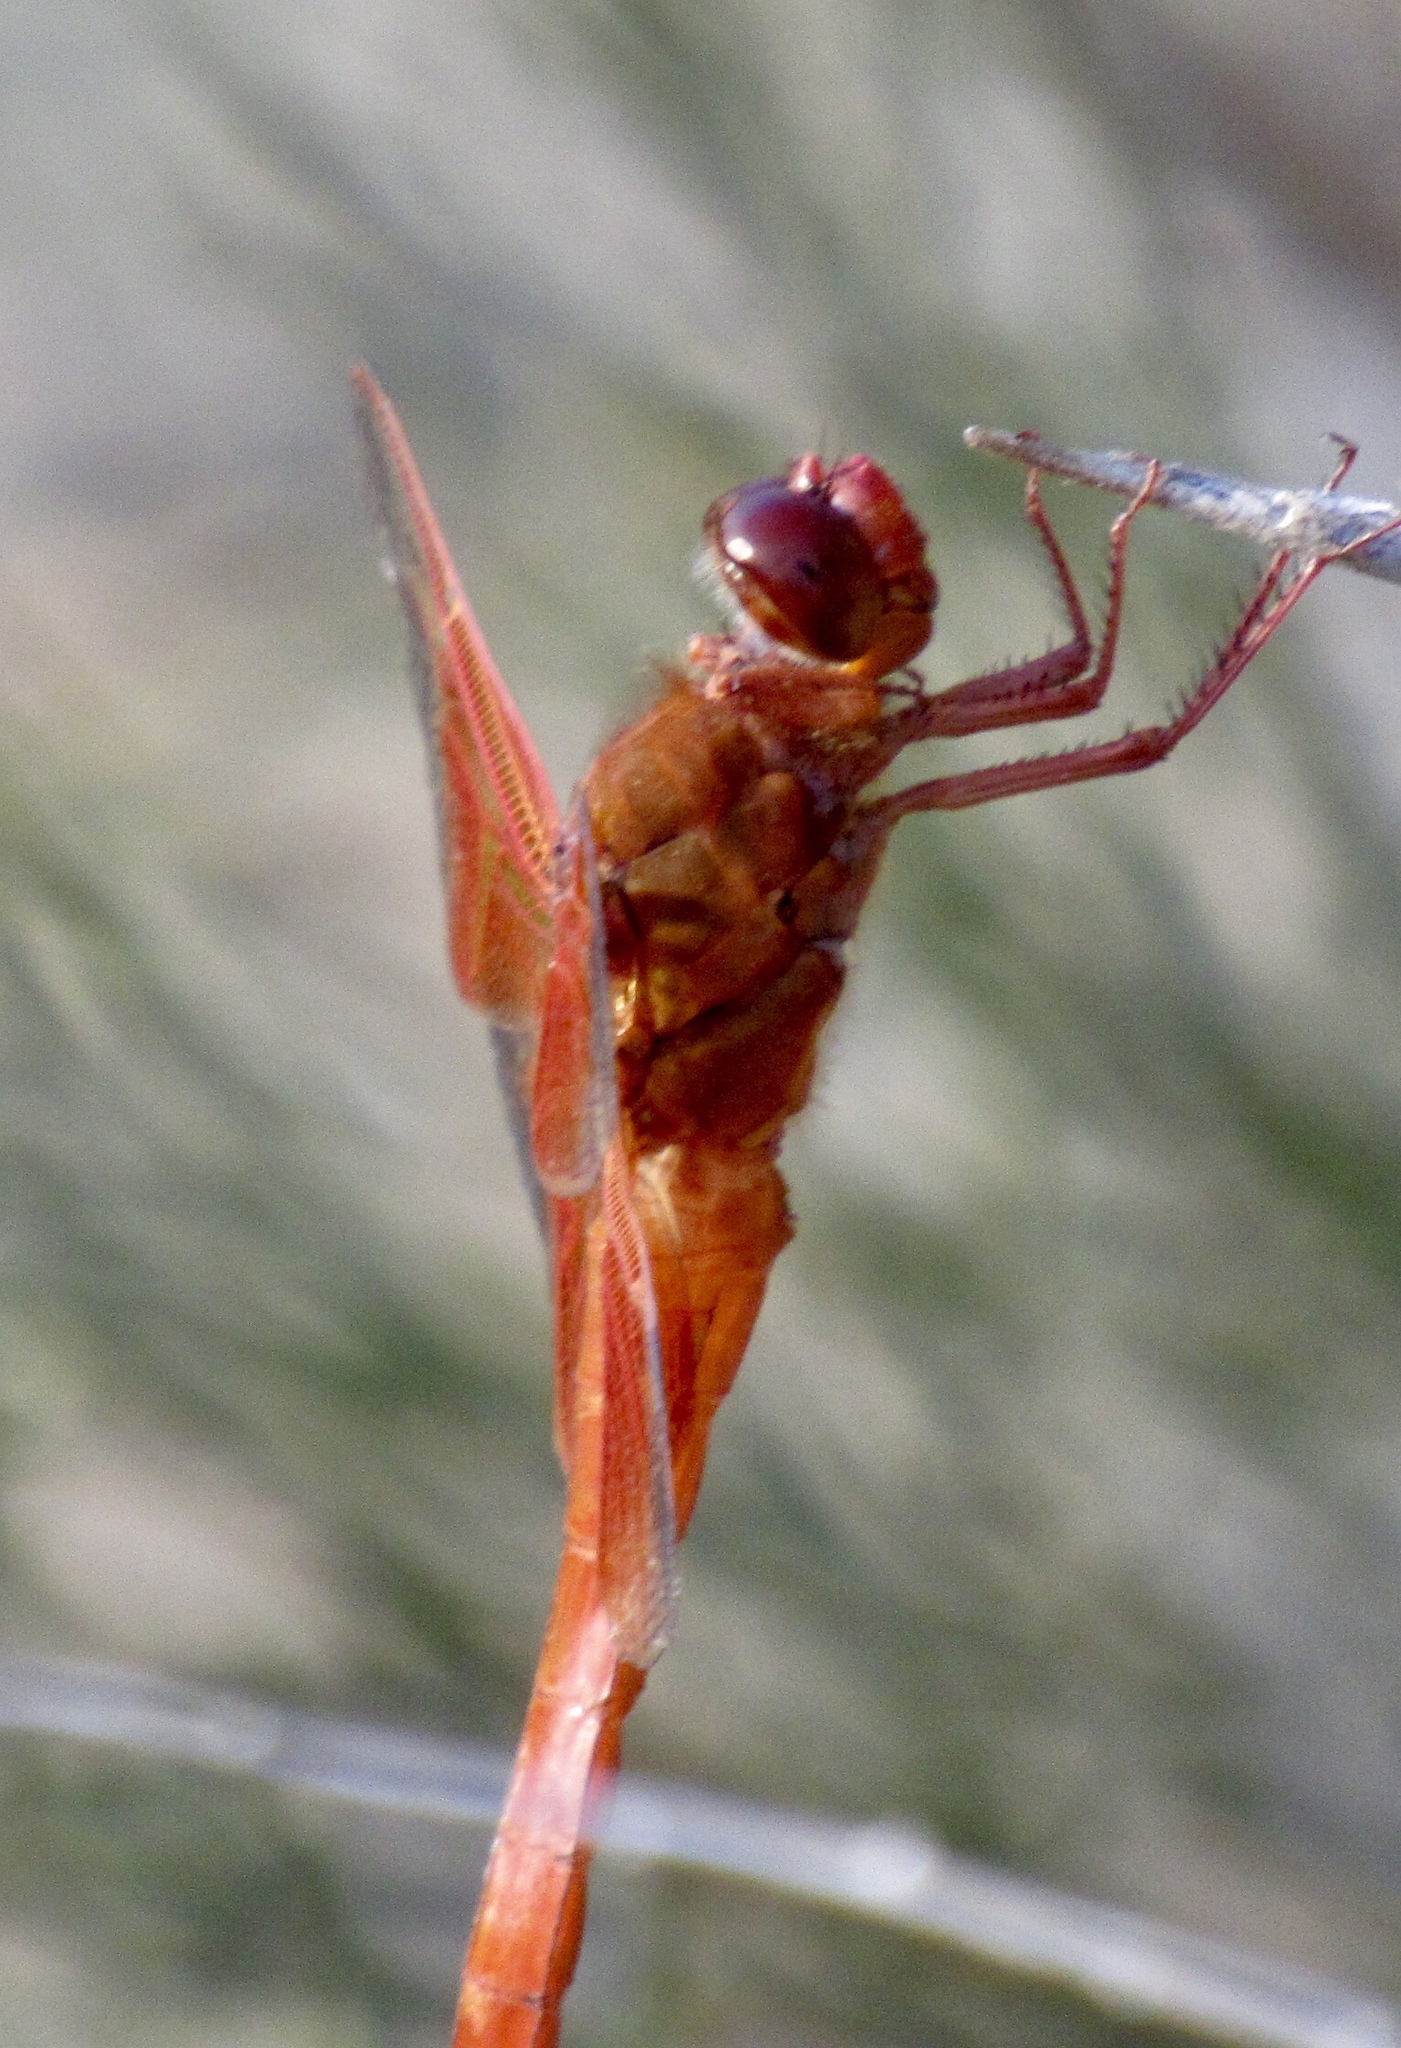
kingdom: Animalia
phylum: Arthropoda
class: Insecta
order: Odonata
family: Libellulidae
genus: Libellula
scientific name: Libellula saturata
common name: Flame skimmer
